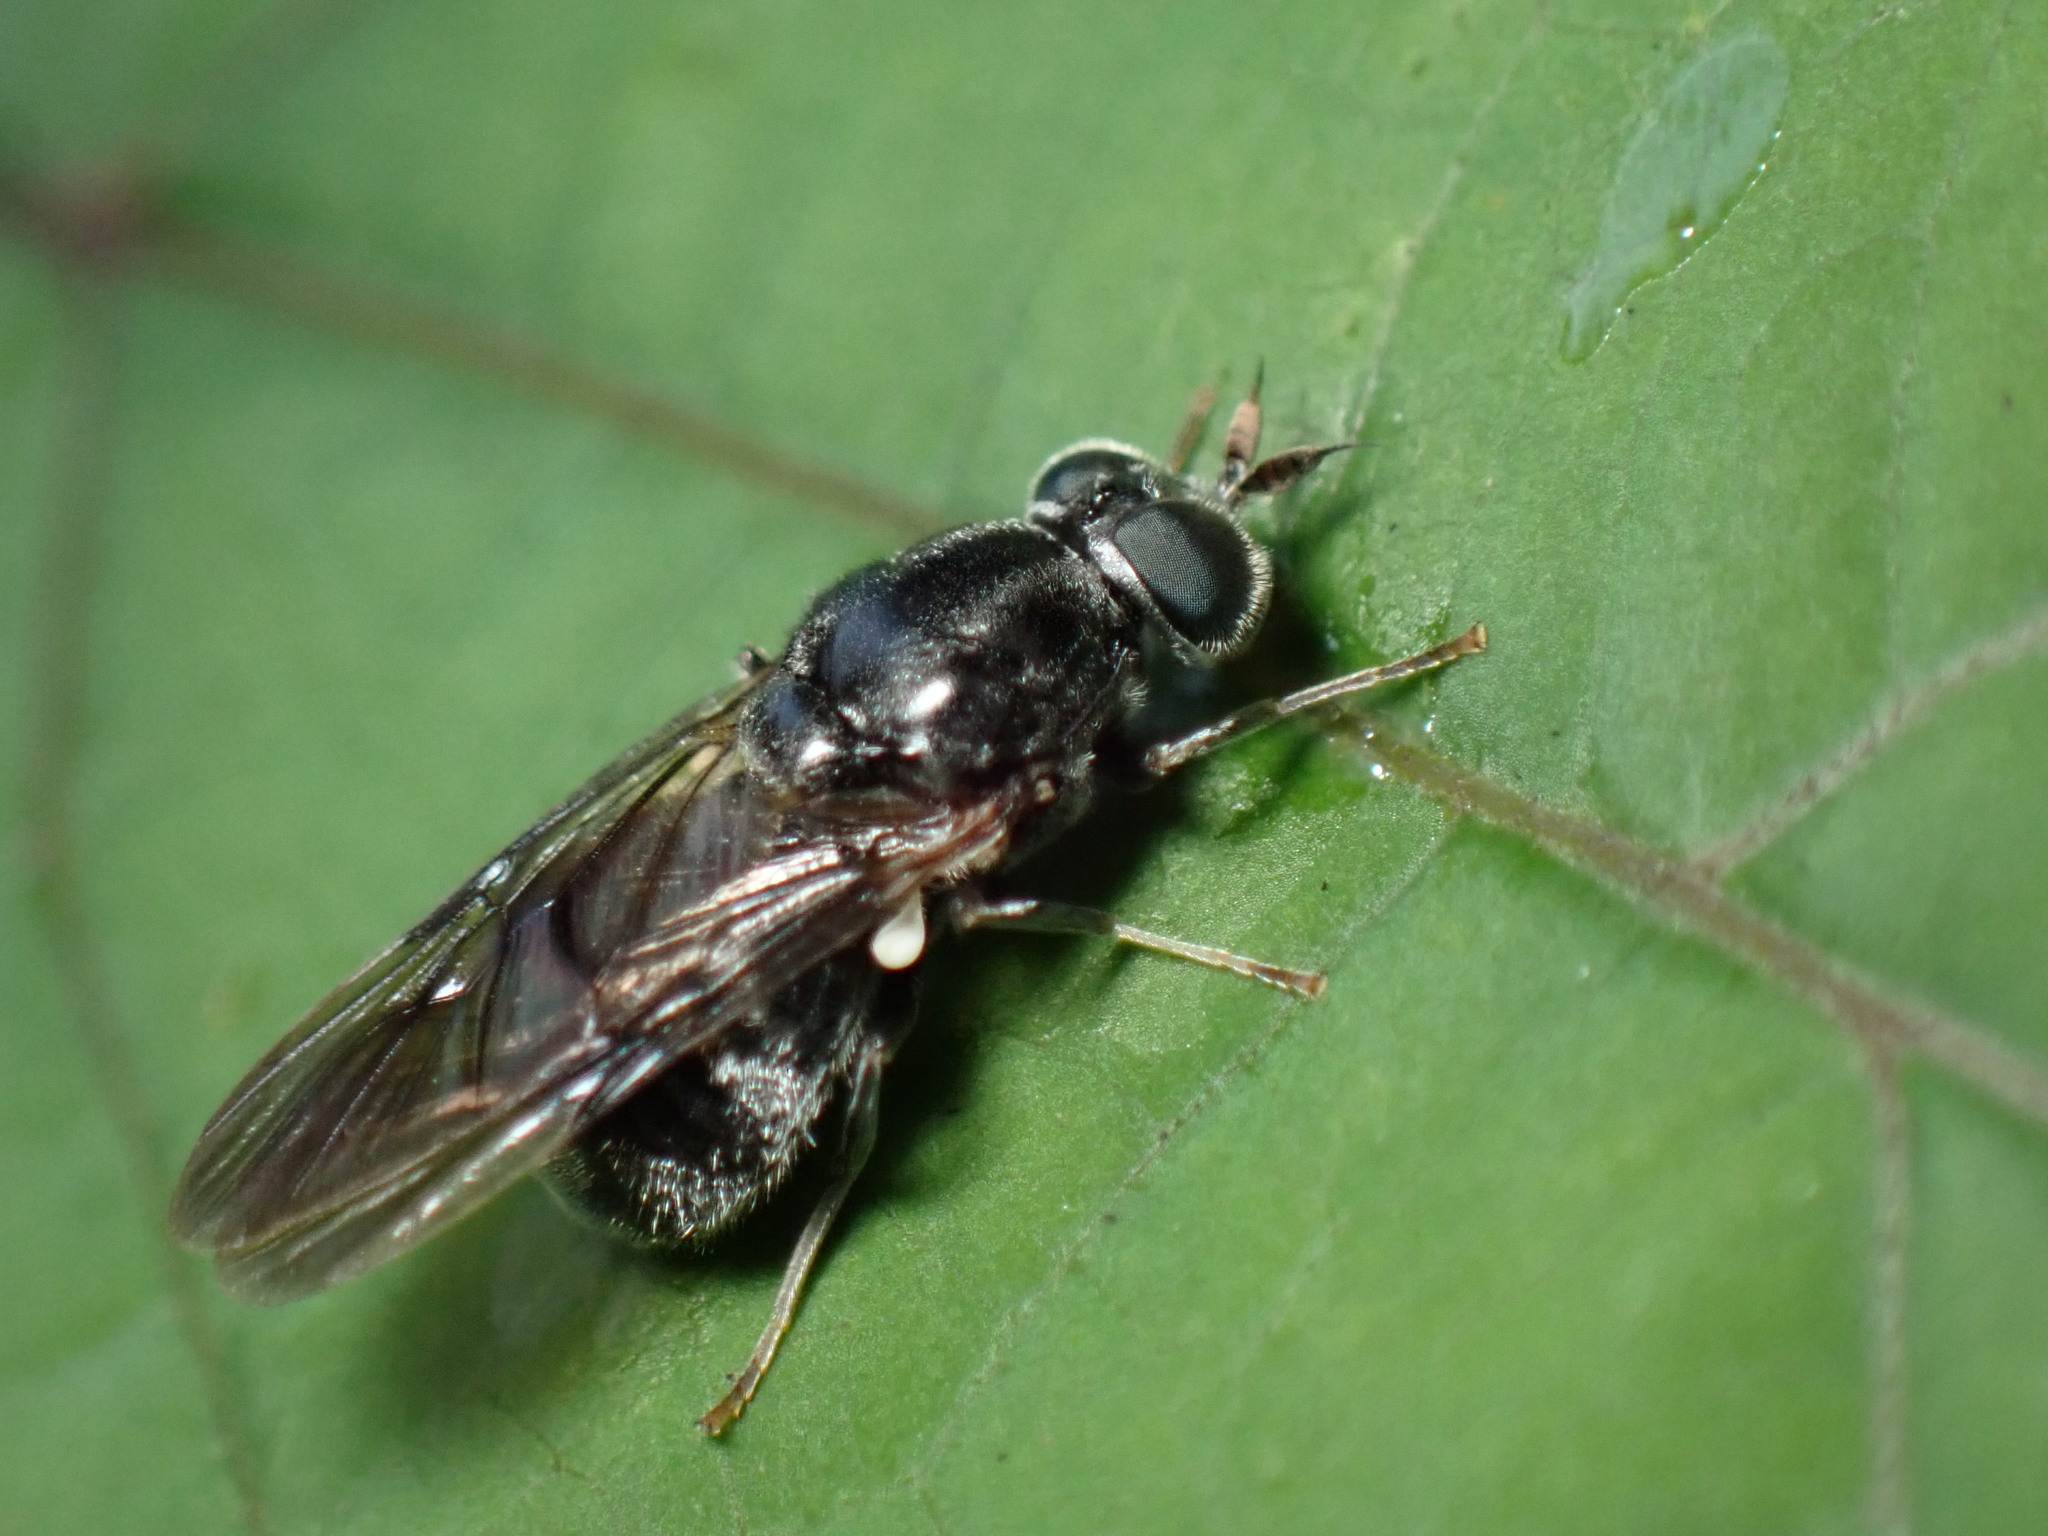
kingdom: Animalia
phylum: Arthropoda
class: Insecta
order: Diptera
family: Stratiomyidae
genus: Adoxomyia
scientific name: Adoxomyia subulata
